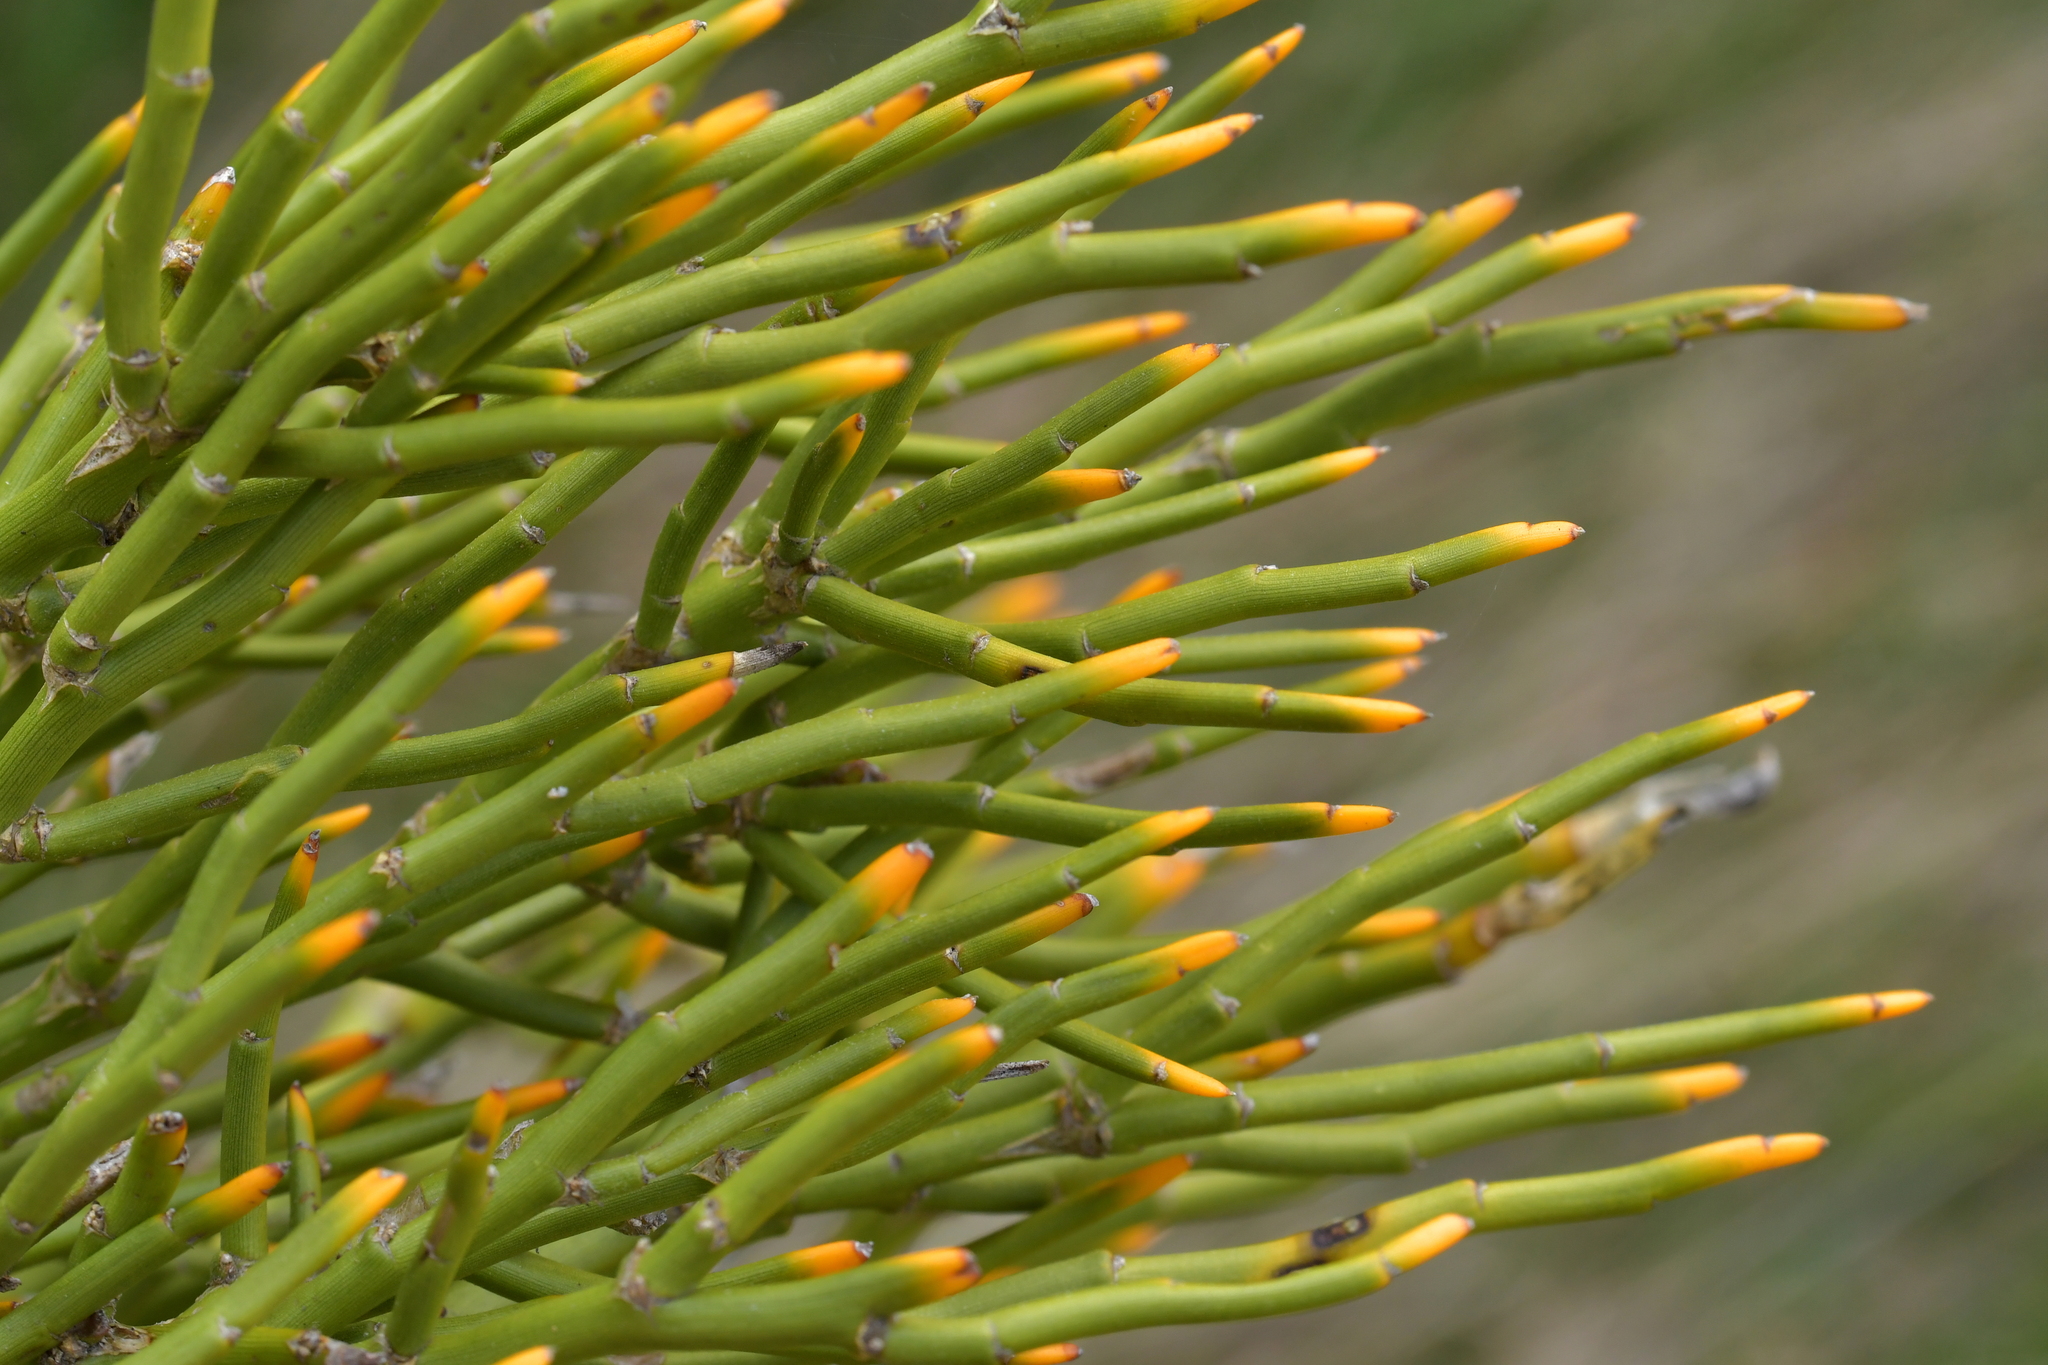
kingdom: Plantae
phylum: Tracheophyta
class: Magnoliopsida
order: Fabales
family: Fabaceae
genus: Carmichaelia
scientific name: Carmichaelia petriei
